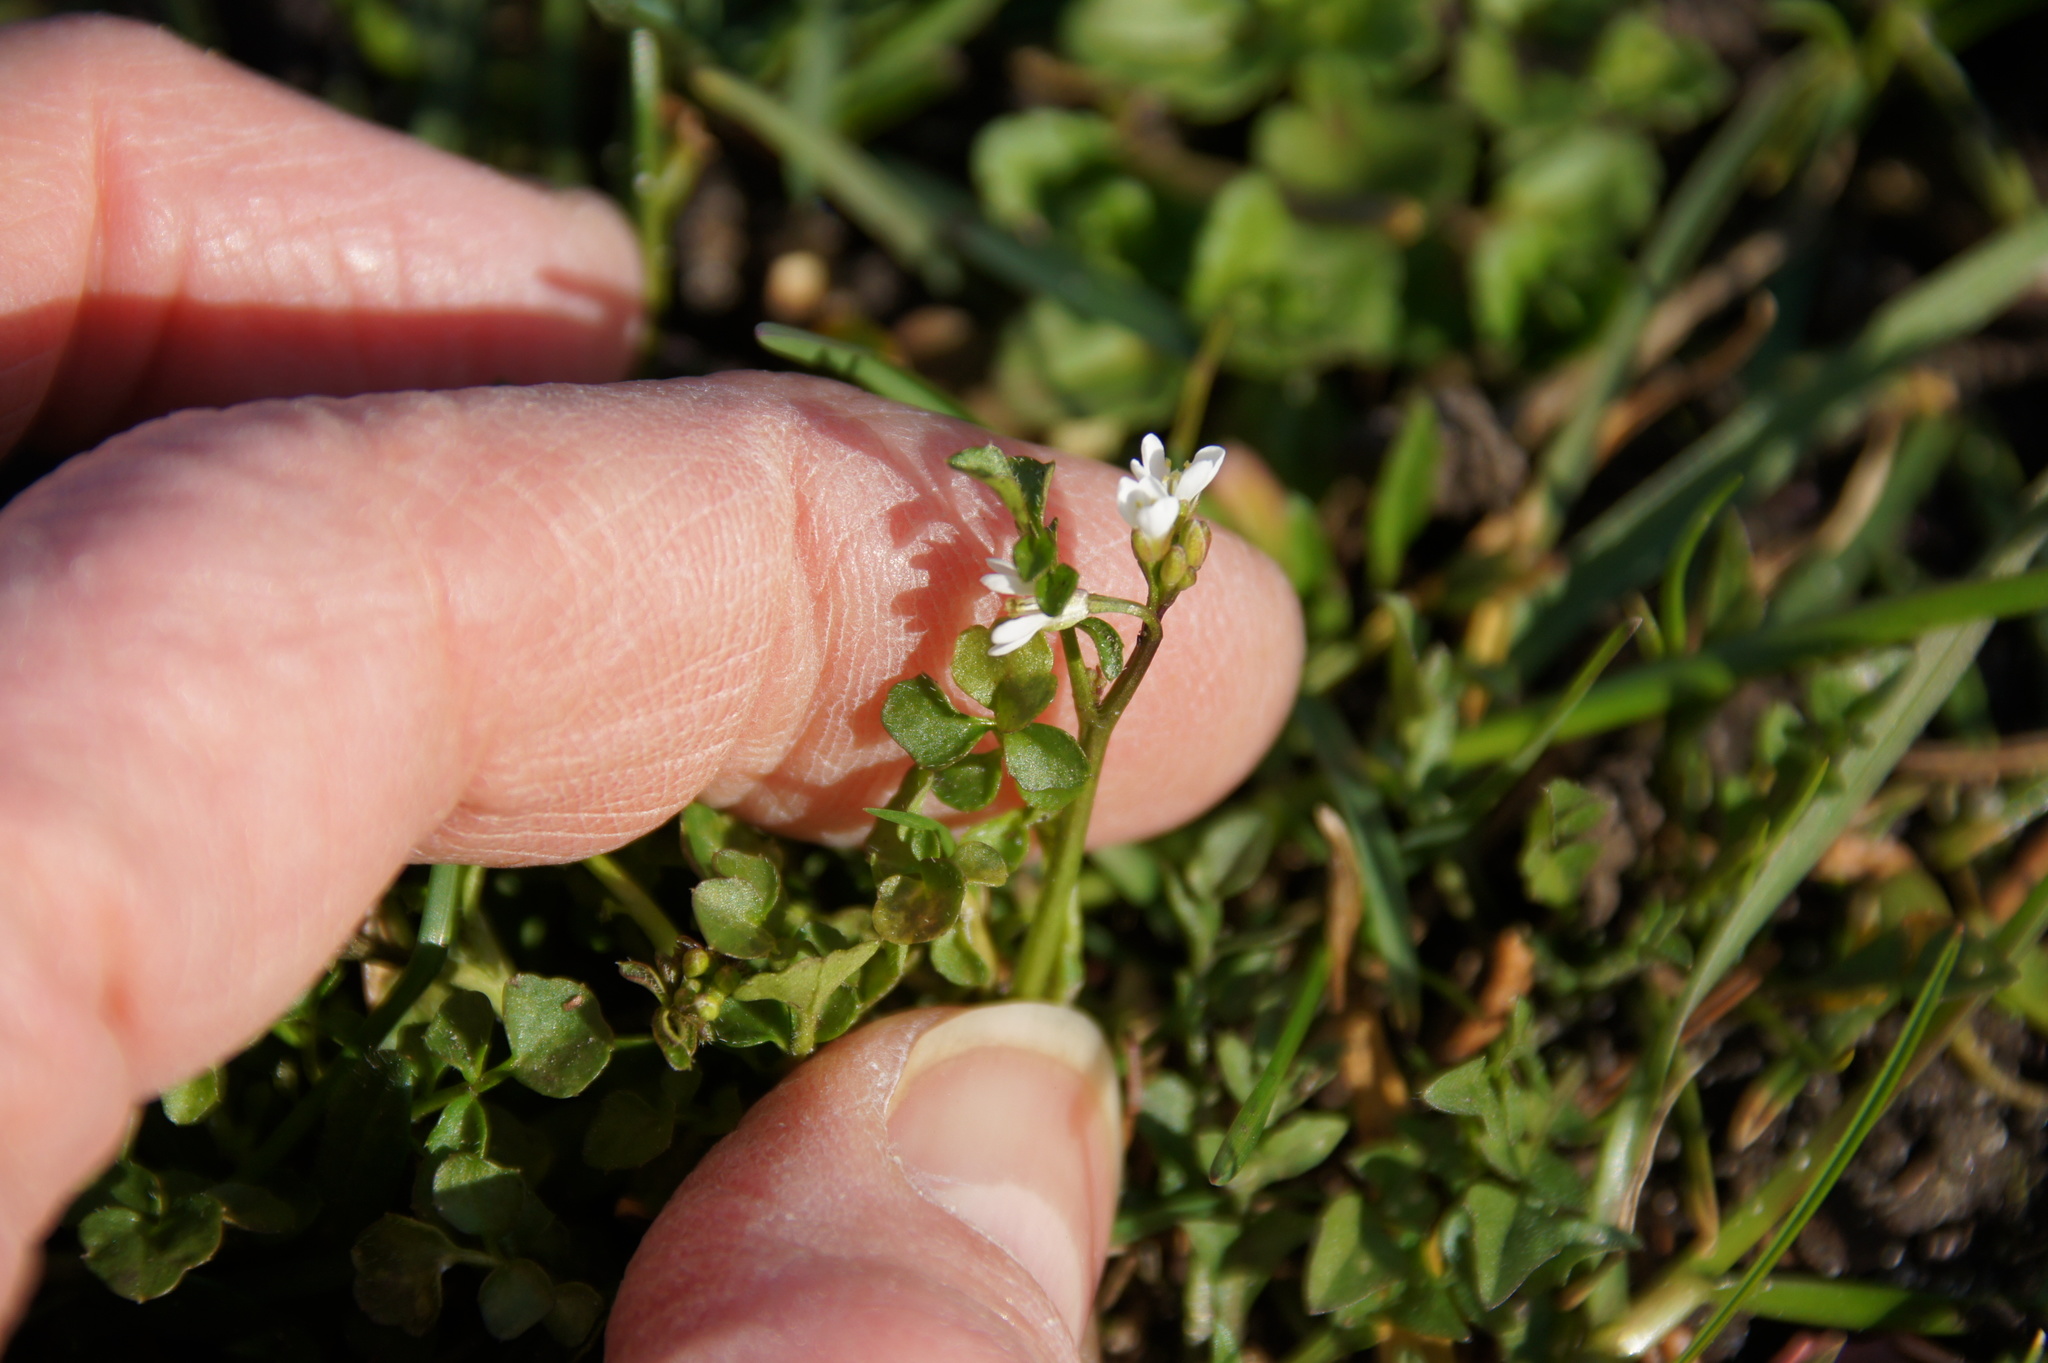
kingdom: Plantae
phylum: Tracheophyta
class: Magnoliopsida
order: Brassicales
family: Brassicaceae
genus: Cardamine
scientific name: Cardamine hirsuta
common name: Hairy bittercress
